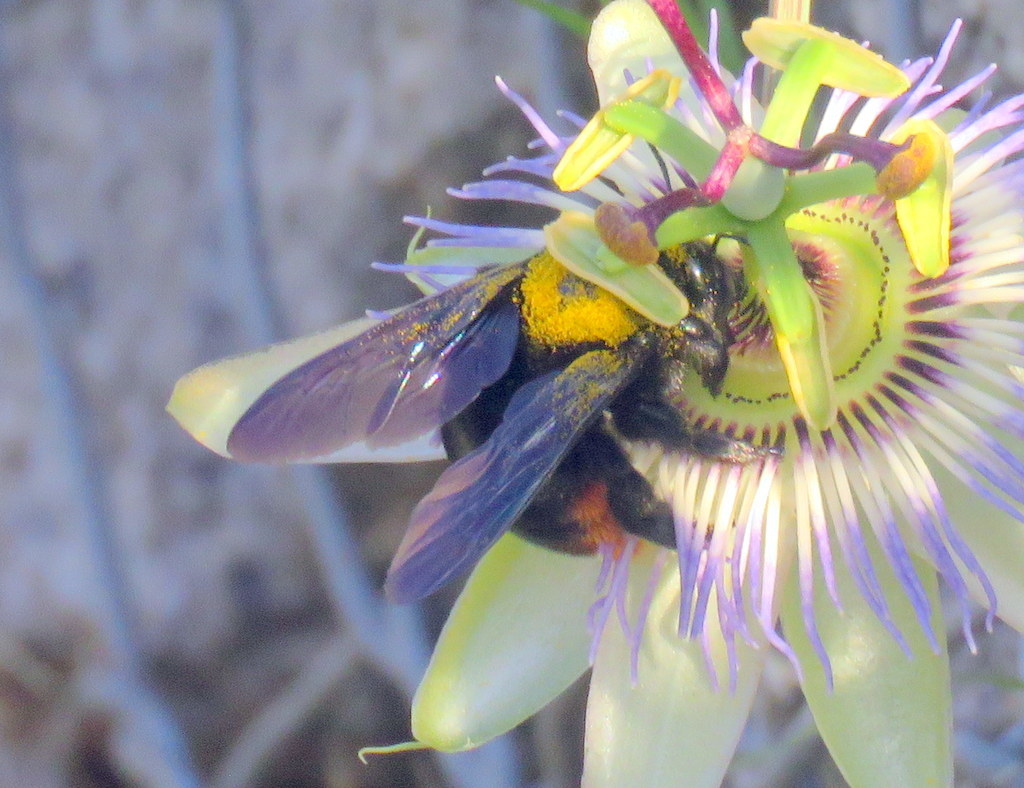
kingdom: Animalia
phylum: Arthropoda
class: Insecta
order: Hymenoptera
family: Apidae
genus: Xylocopa
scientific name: Xylocopa augusti
